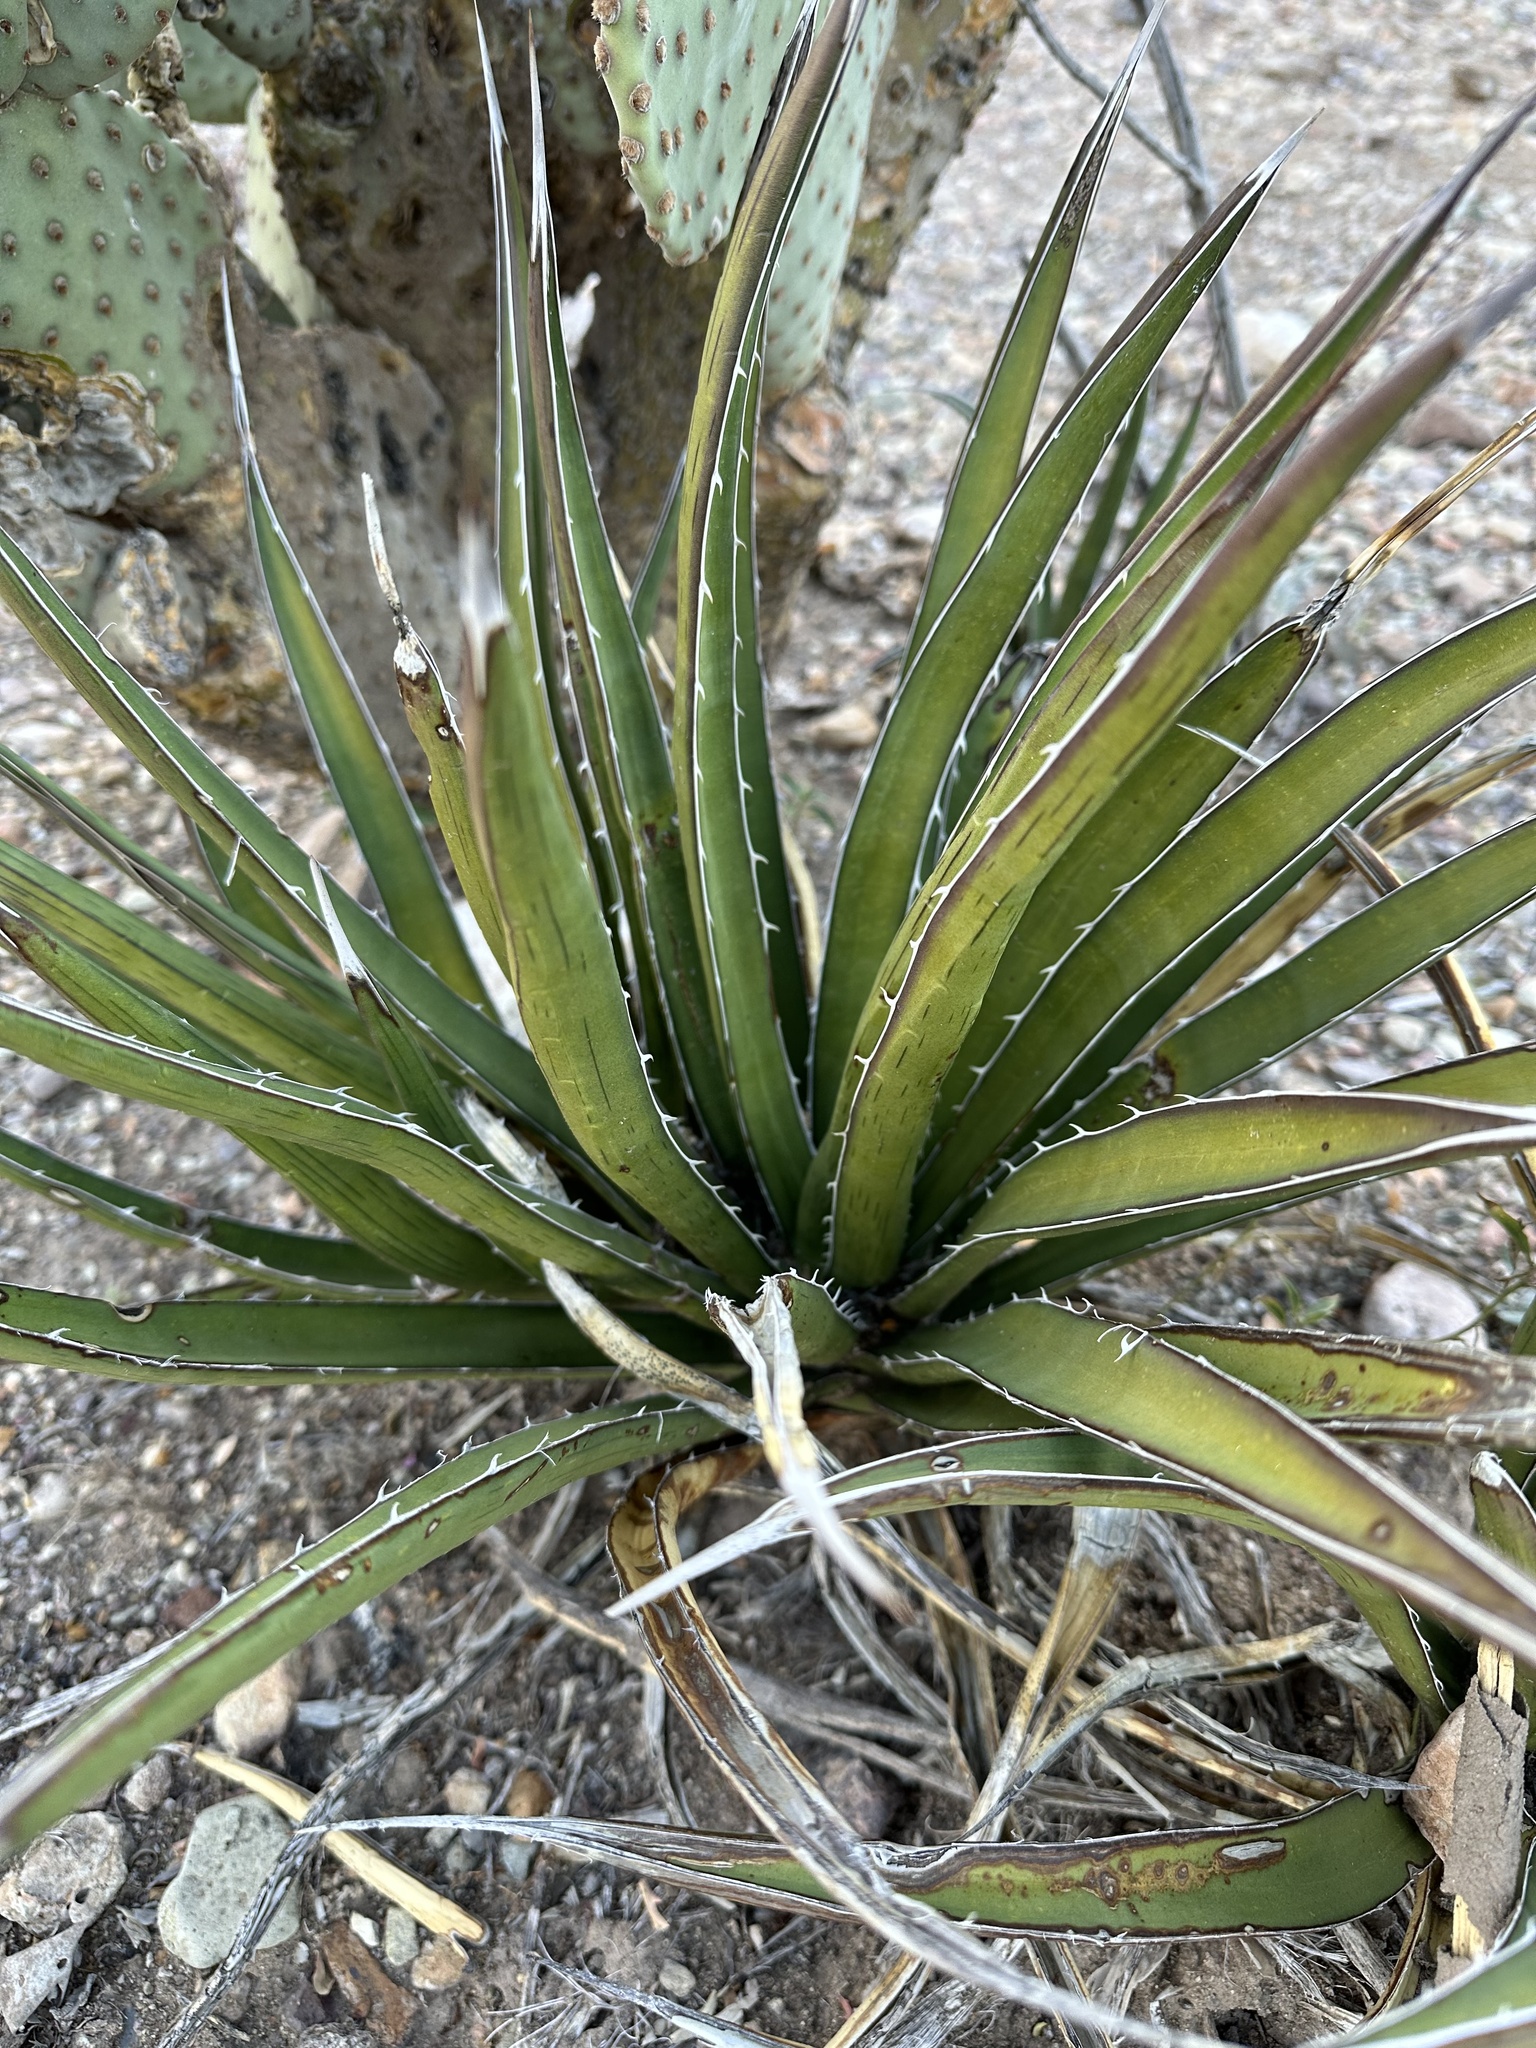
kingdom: Plantae
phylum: Tracheophyta
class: Liliopsida
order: Asparagales
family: Asparagaceae
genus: Agave
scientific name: Agave lechuguilla
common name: Lecheguilla agave
